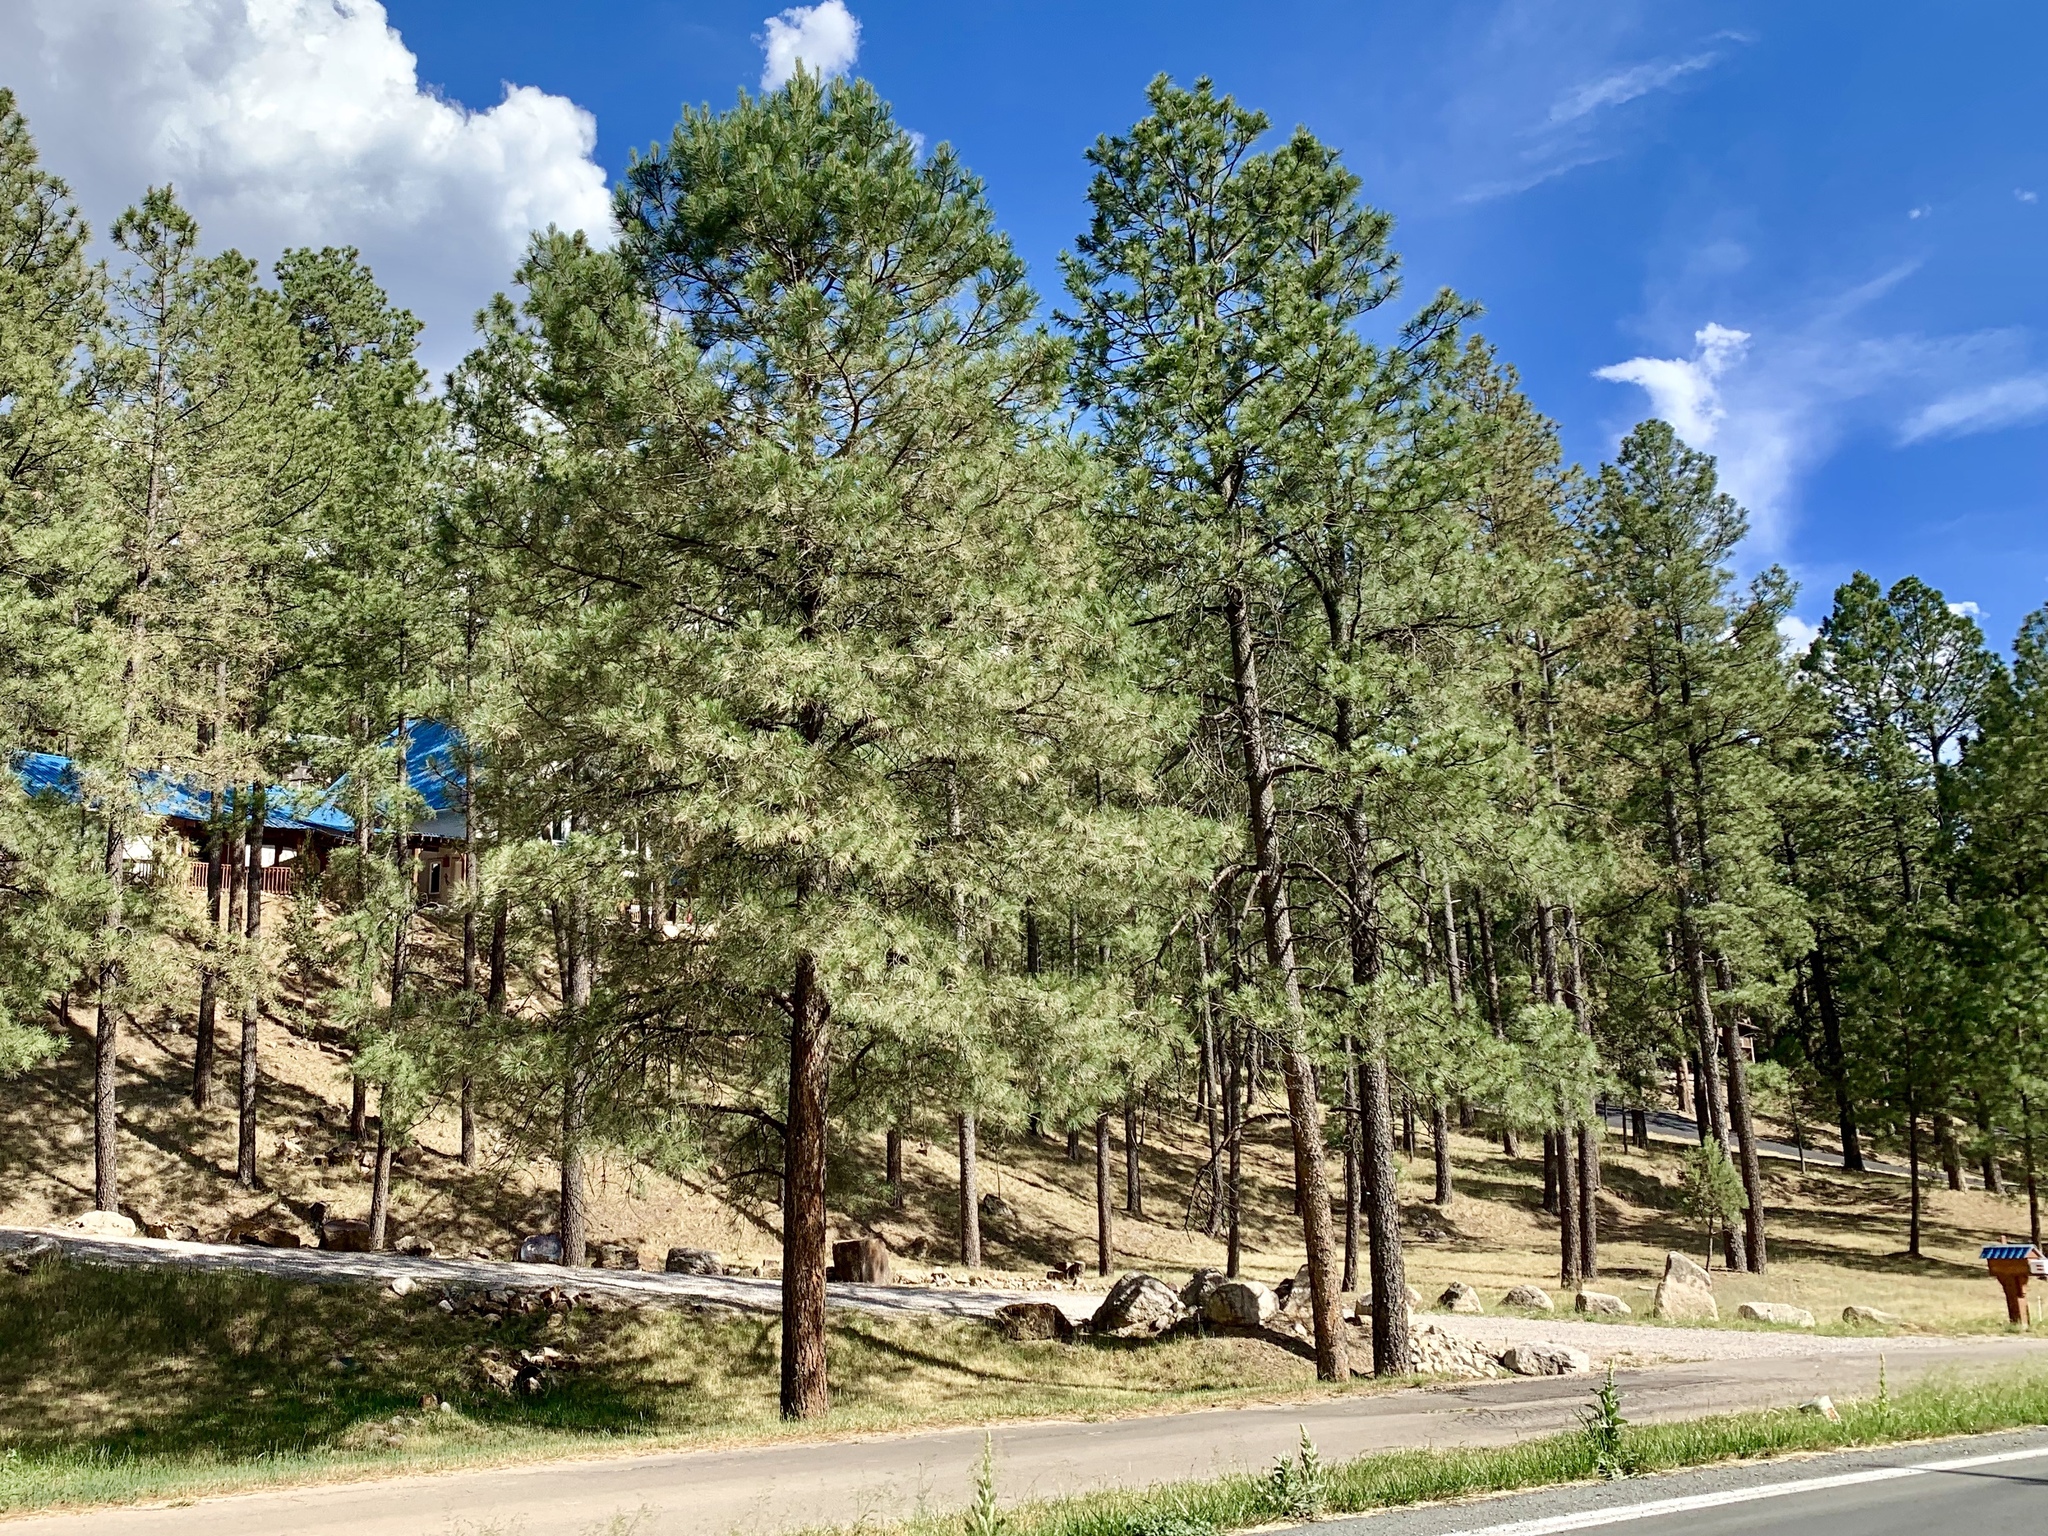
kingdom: Plantae
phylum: Tracheophyta
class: Pinopsida
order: Pinales
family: Pinaceae
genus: Pinus
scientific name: Pinus ponderosa
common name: Western yellow-pine
